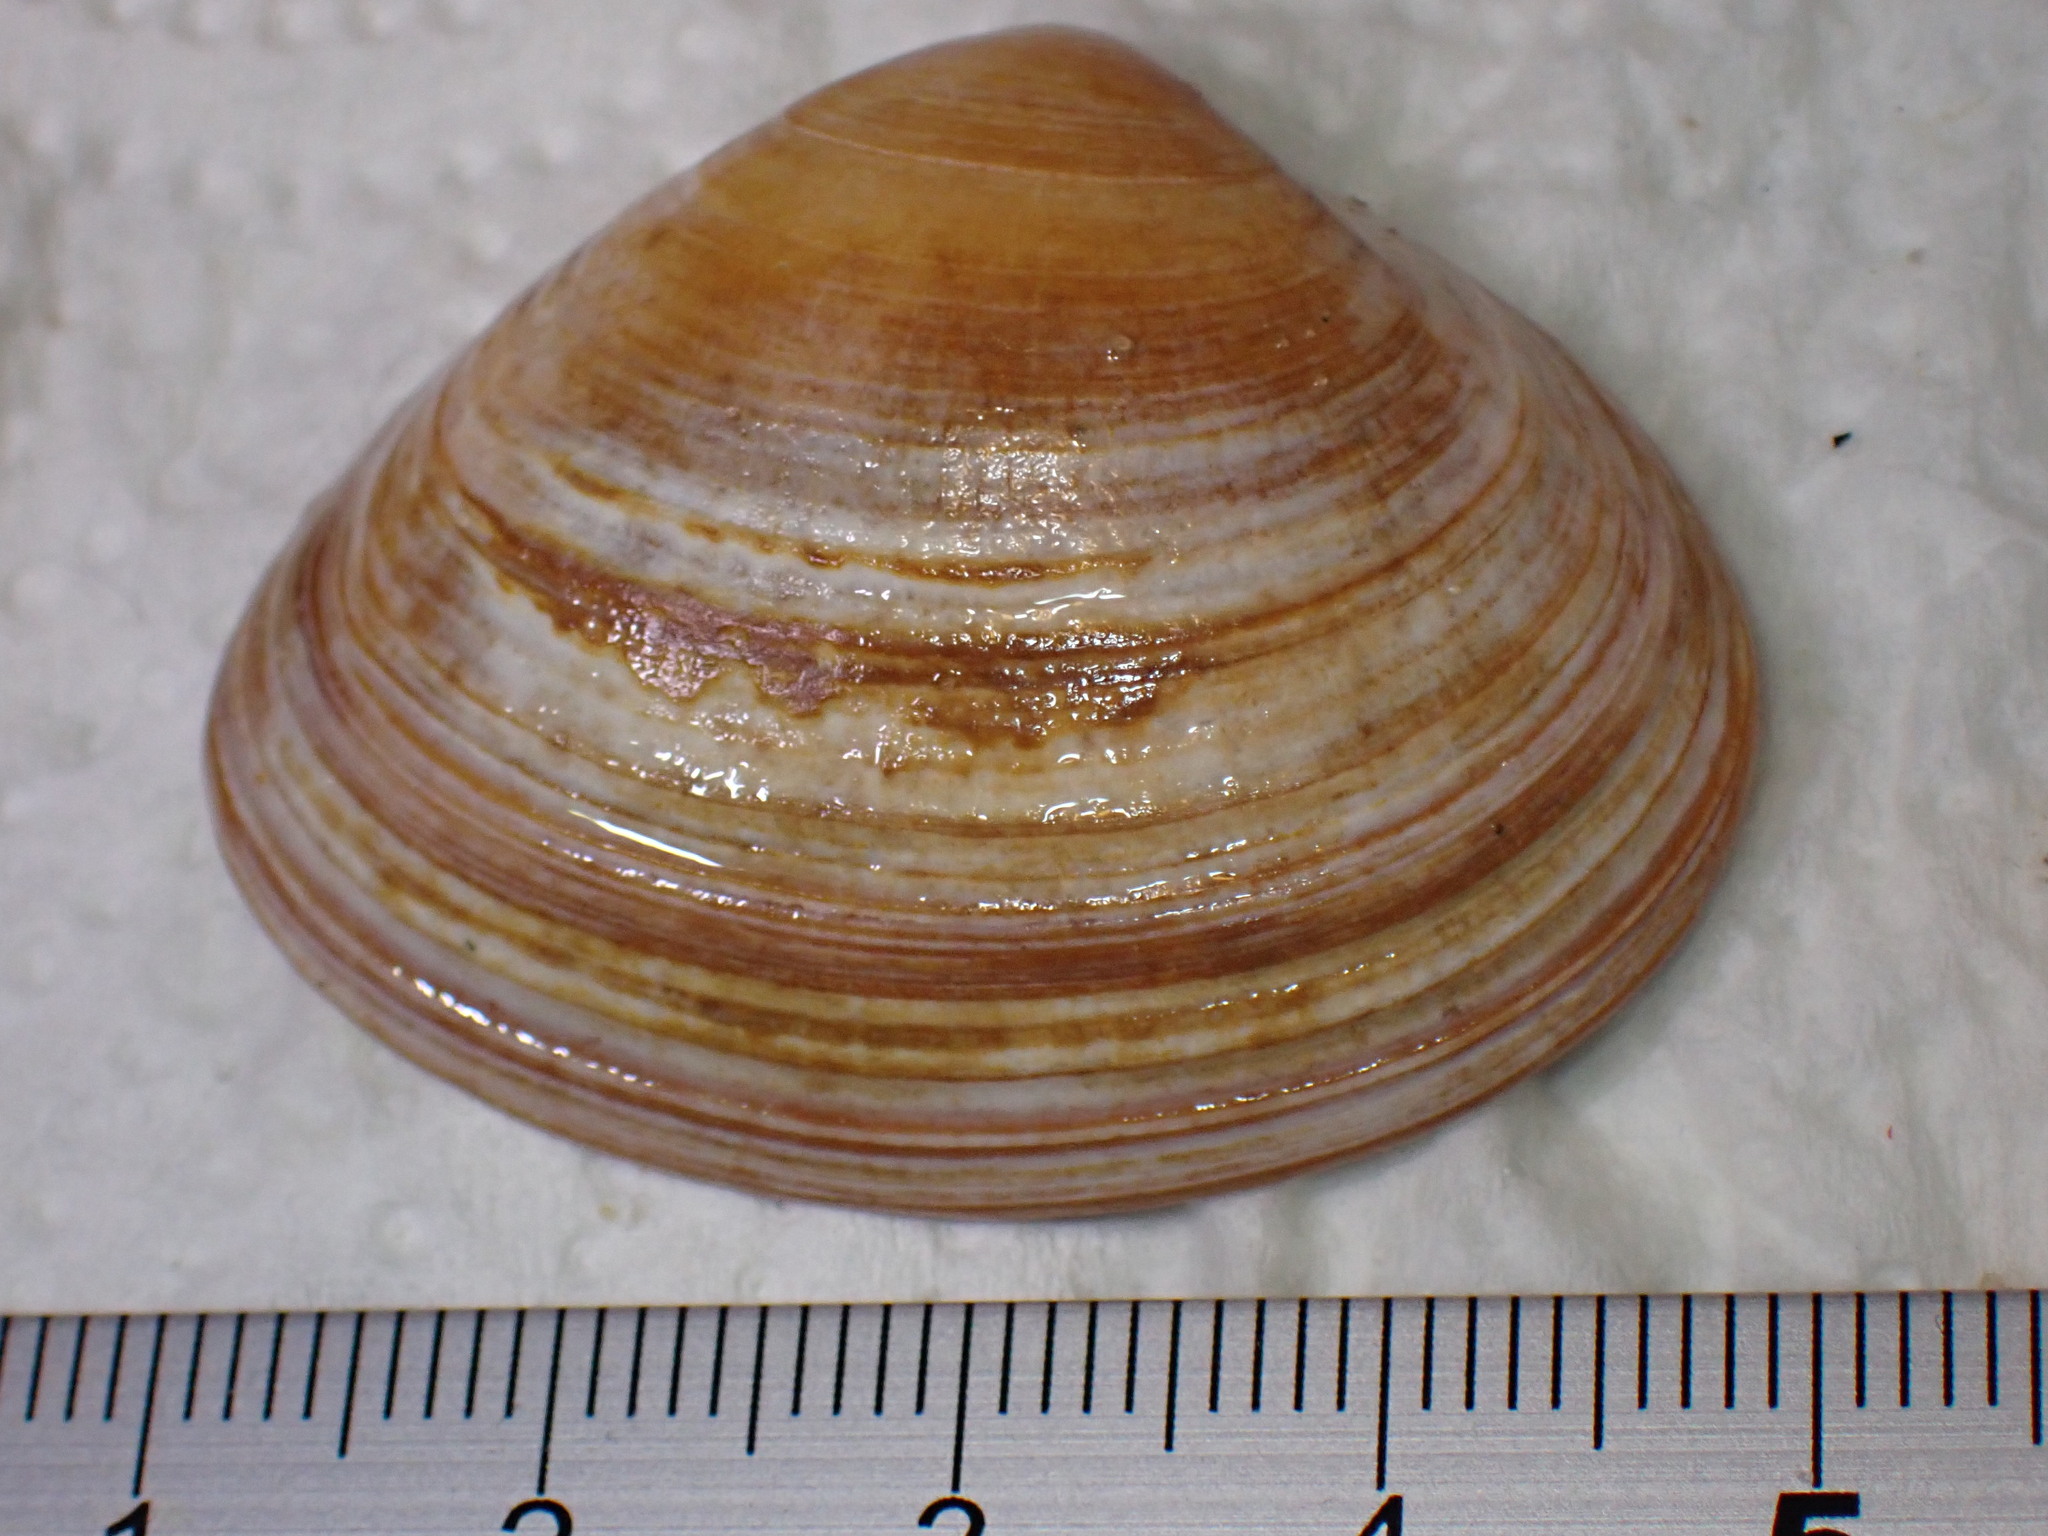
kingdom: Animalia
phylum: Mollusca
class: Bivalvia
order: Venerida
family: Mactridae
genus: Spisula
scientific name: Spisula solida
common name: Thick trough shell
